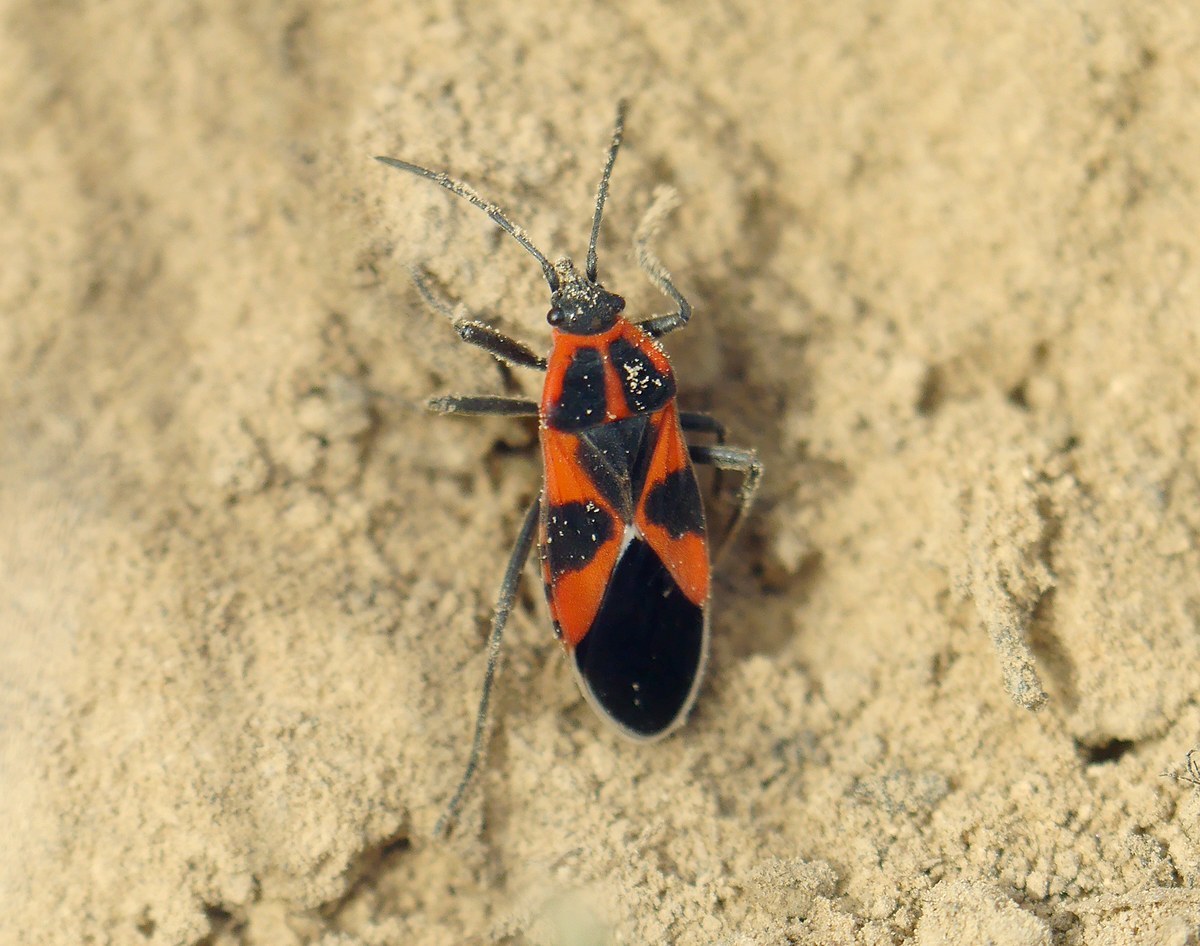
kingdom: Animalia
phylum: Arthropoda
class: Insecta
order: Hemiptera
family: Lygaeidae
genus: Tropidothorax
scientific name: Tropidothorax leucopterus
